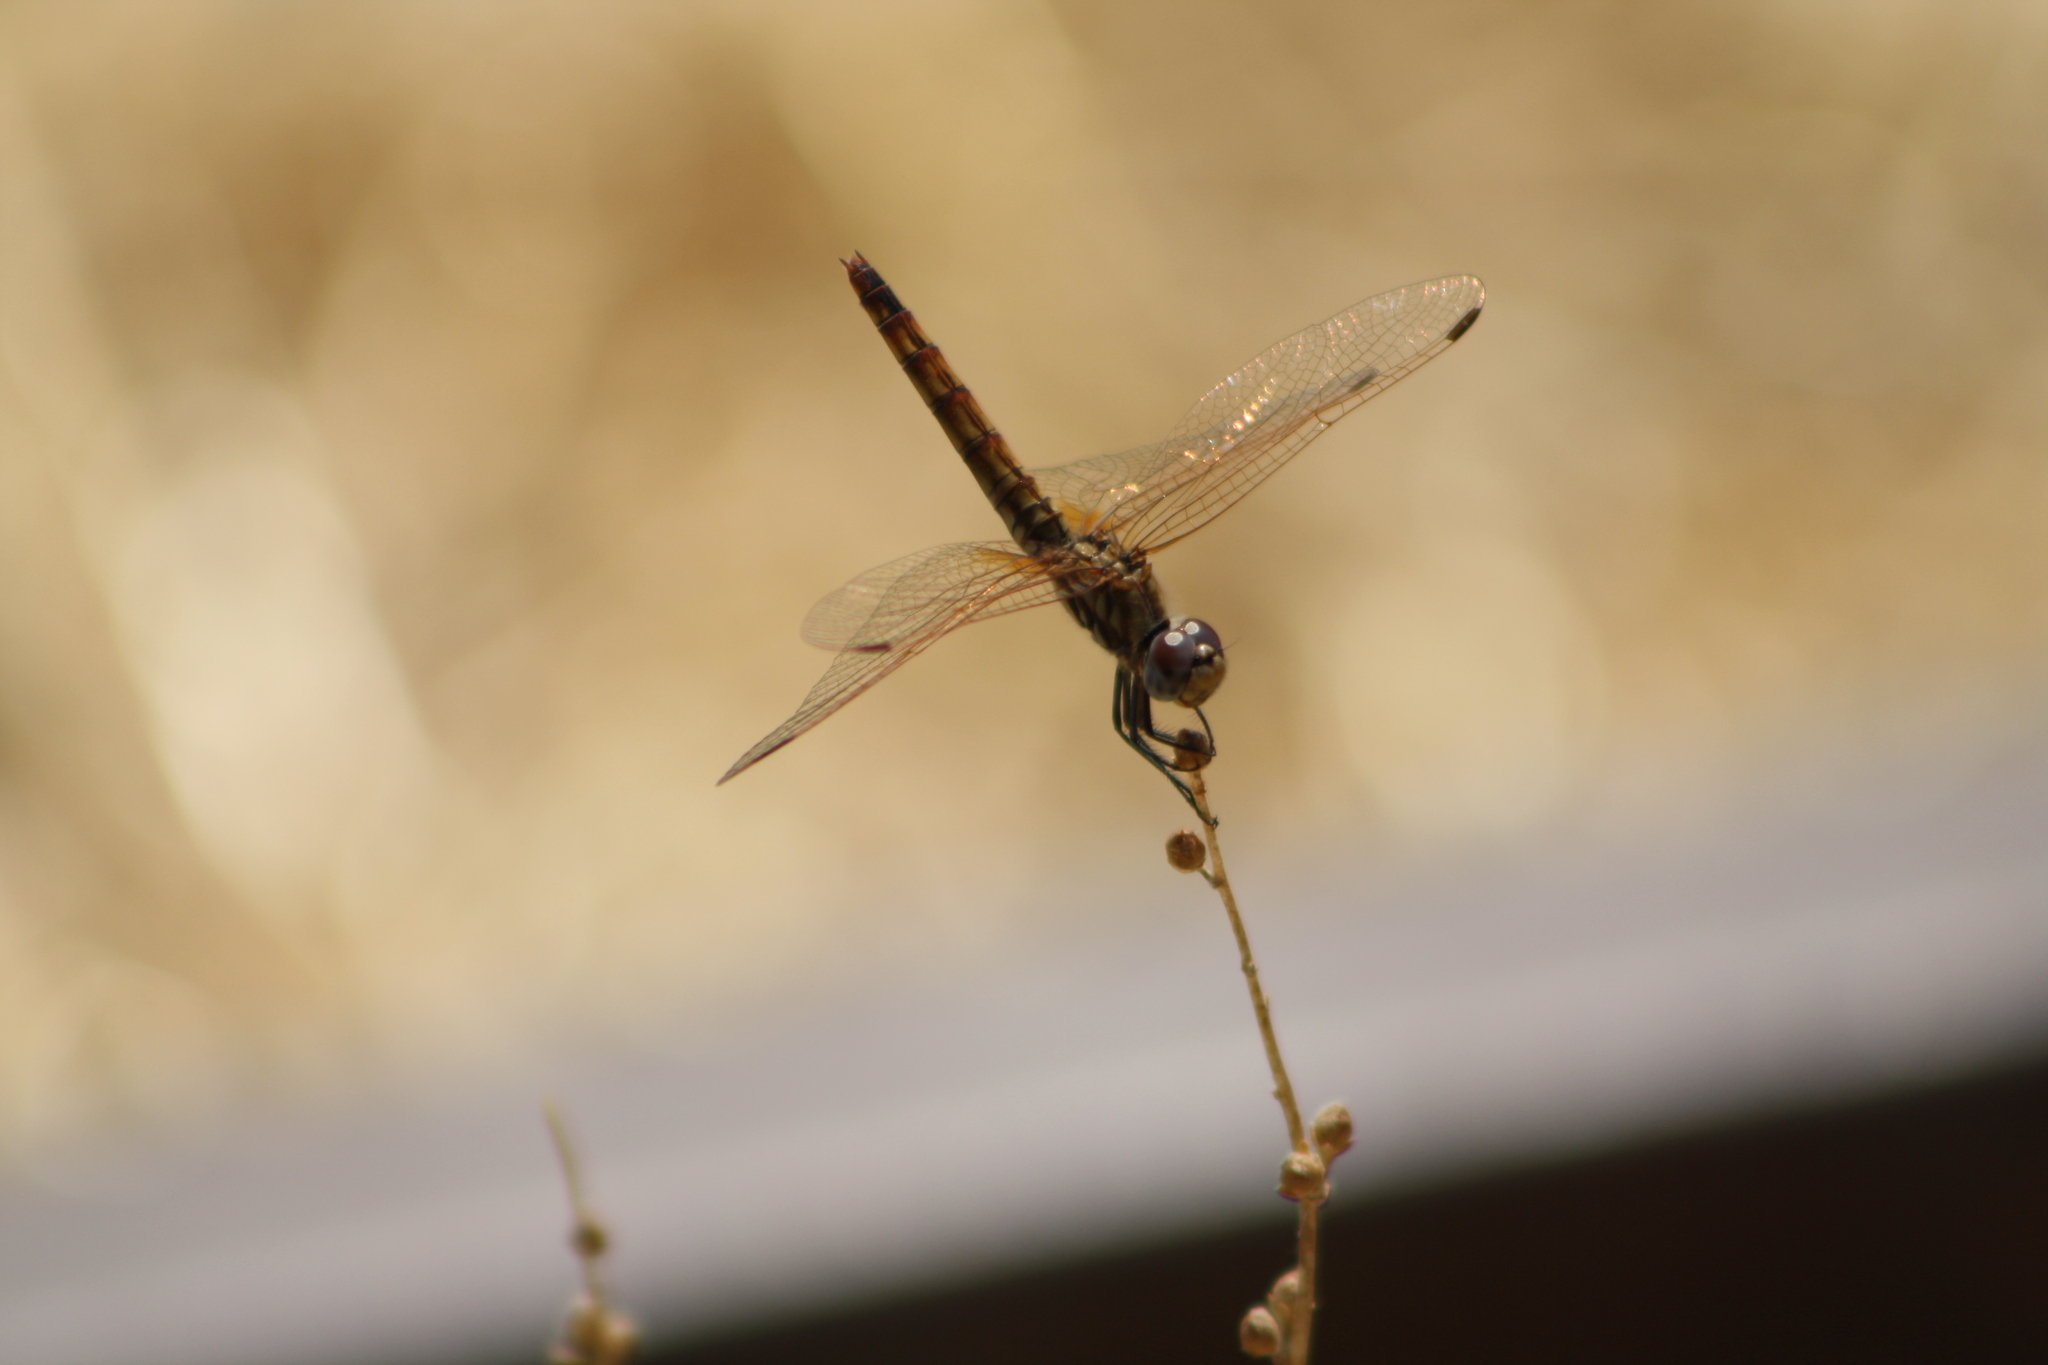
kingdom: Animalia
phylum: Arthropoda
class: Insecta
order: Odonata
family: Libellulidae
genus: Trithemis
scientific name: Trithemis annulata
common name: Violet dropwing
